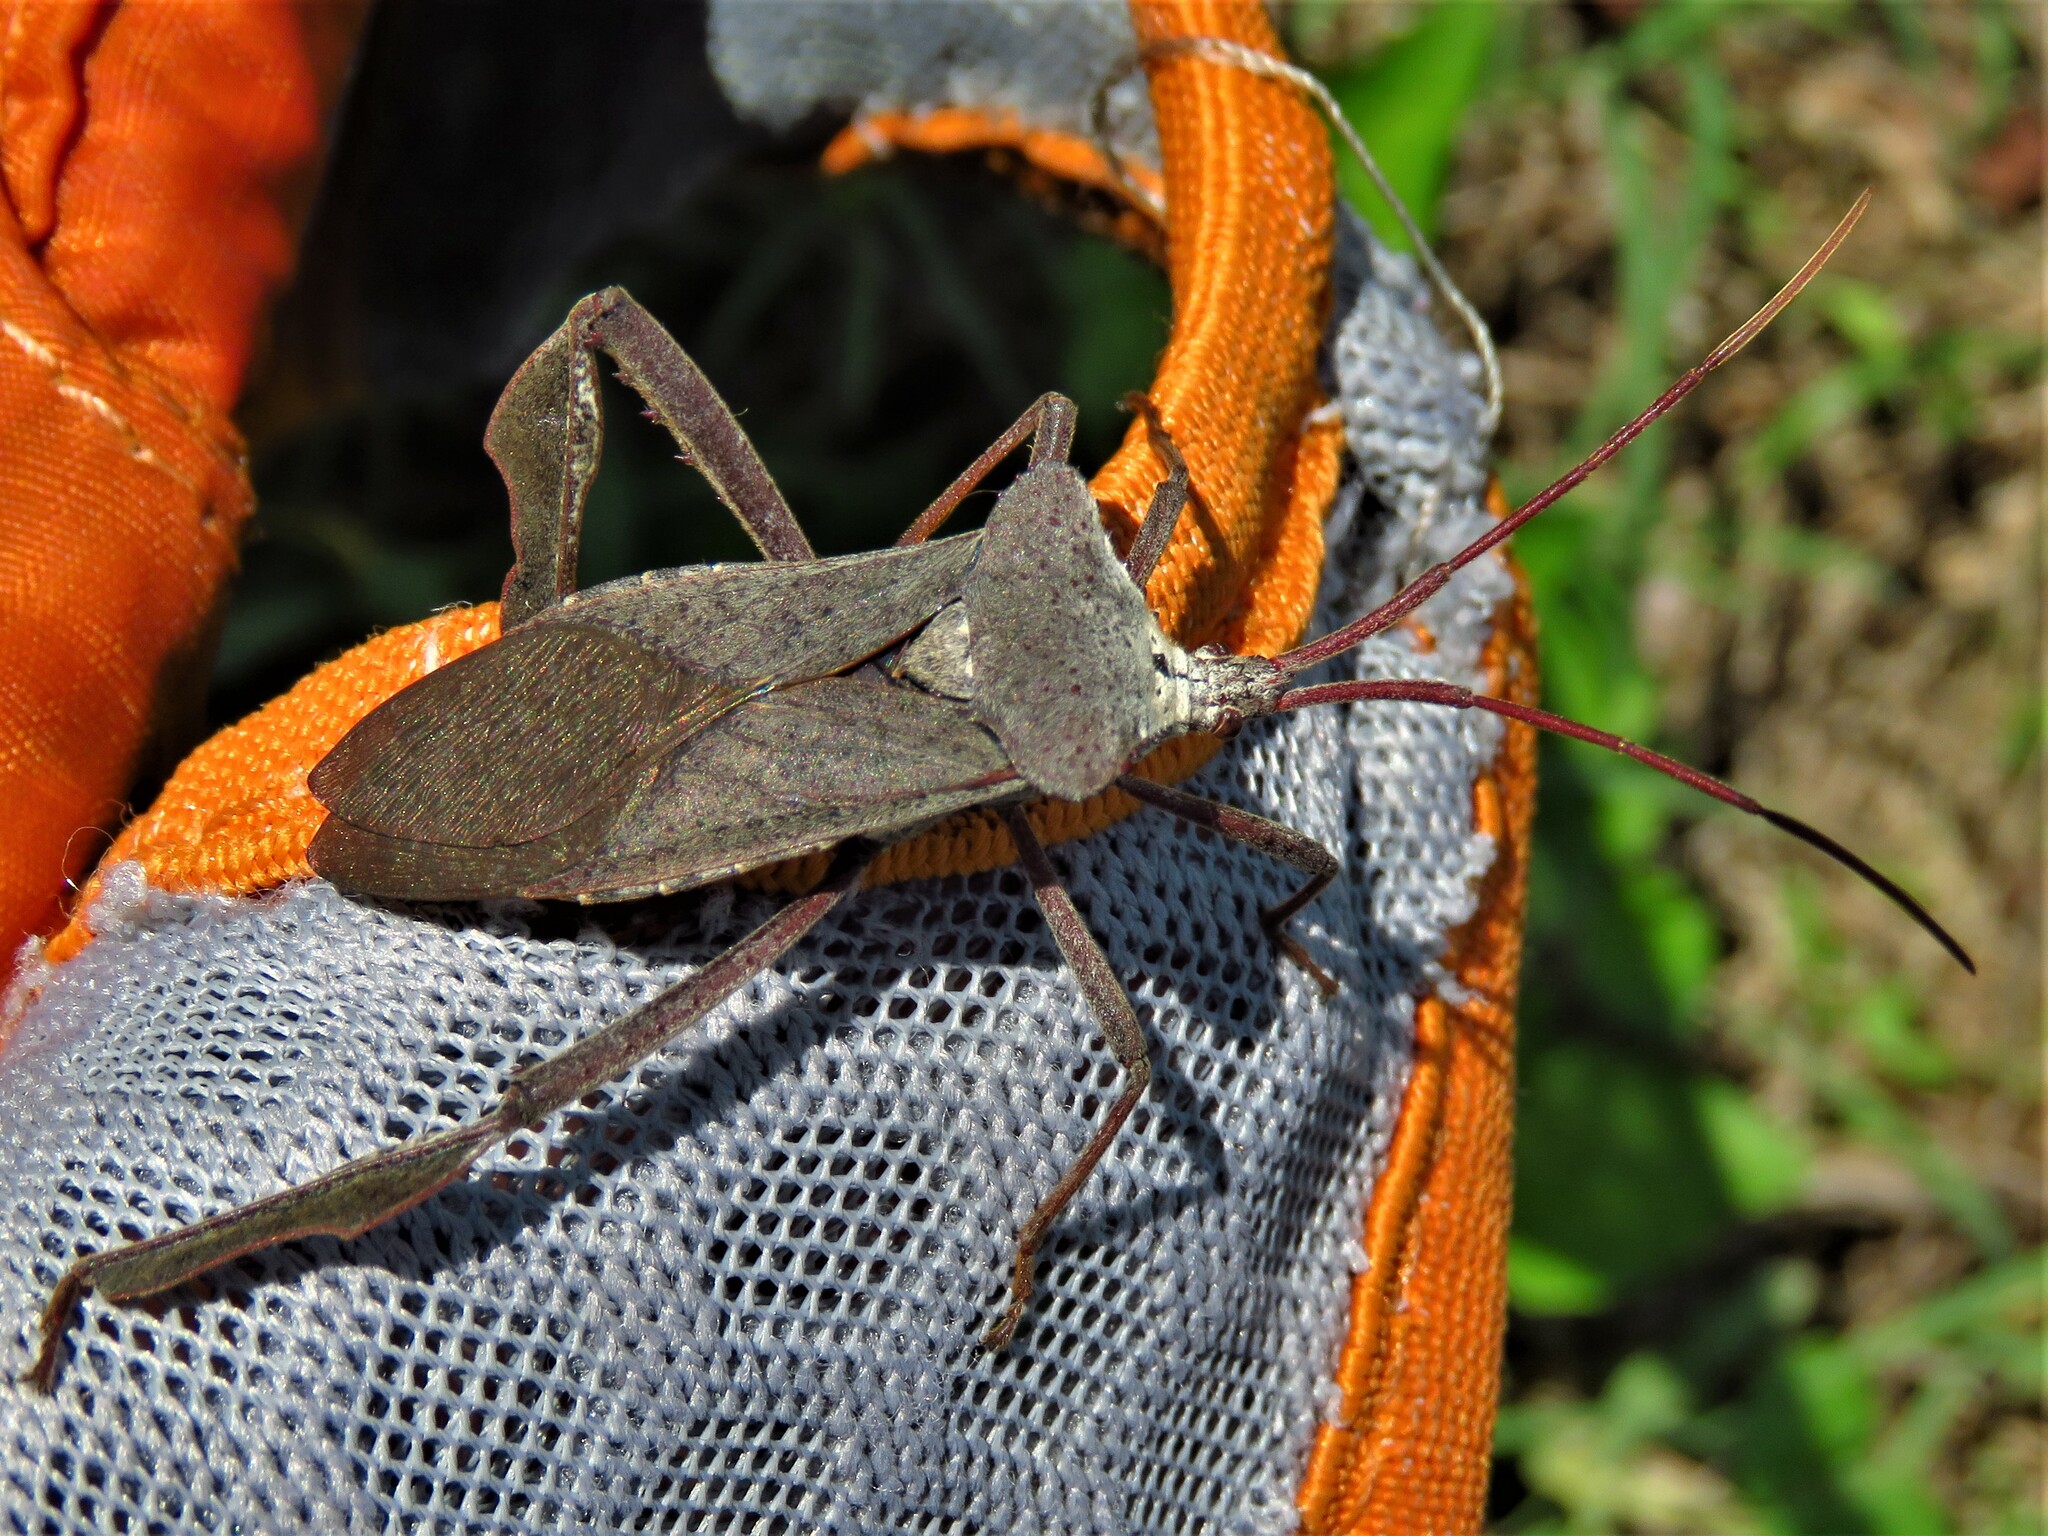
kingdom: Animalia
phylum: Arthropoda
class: Insecta
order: Hemiptera
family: Coreidae
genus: Acanthocephala
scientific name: Acanthocephala declivis
